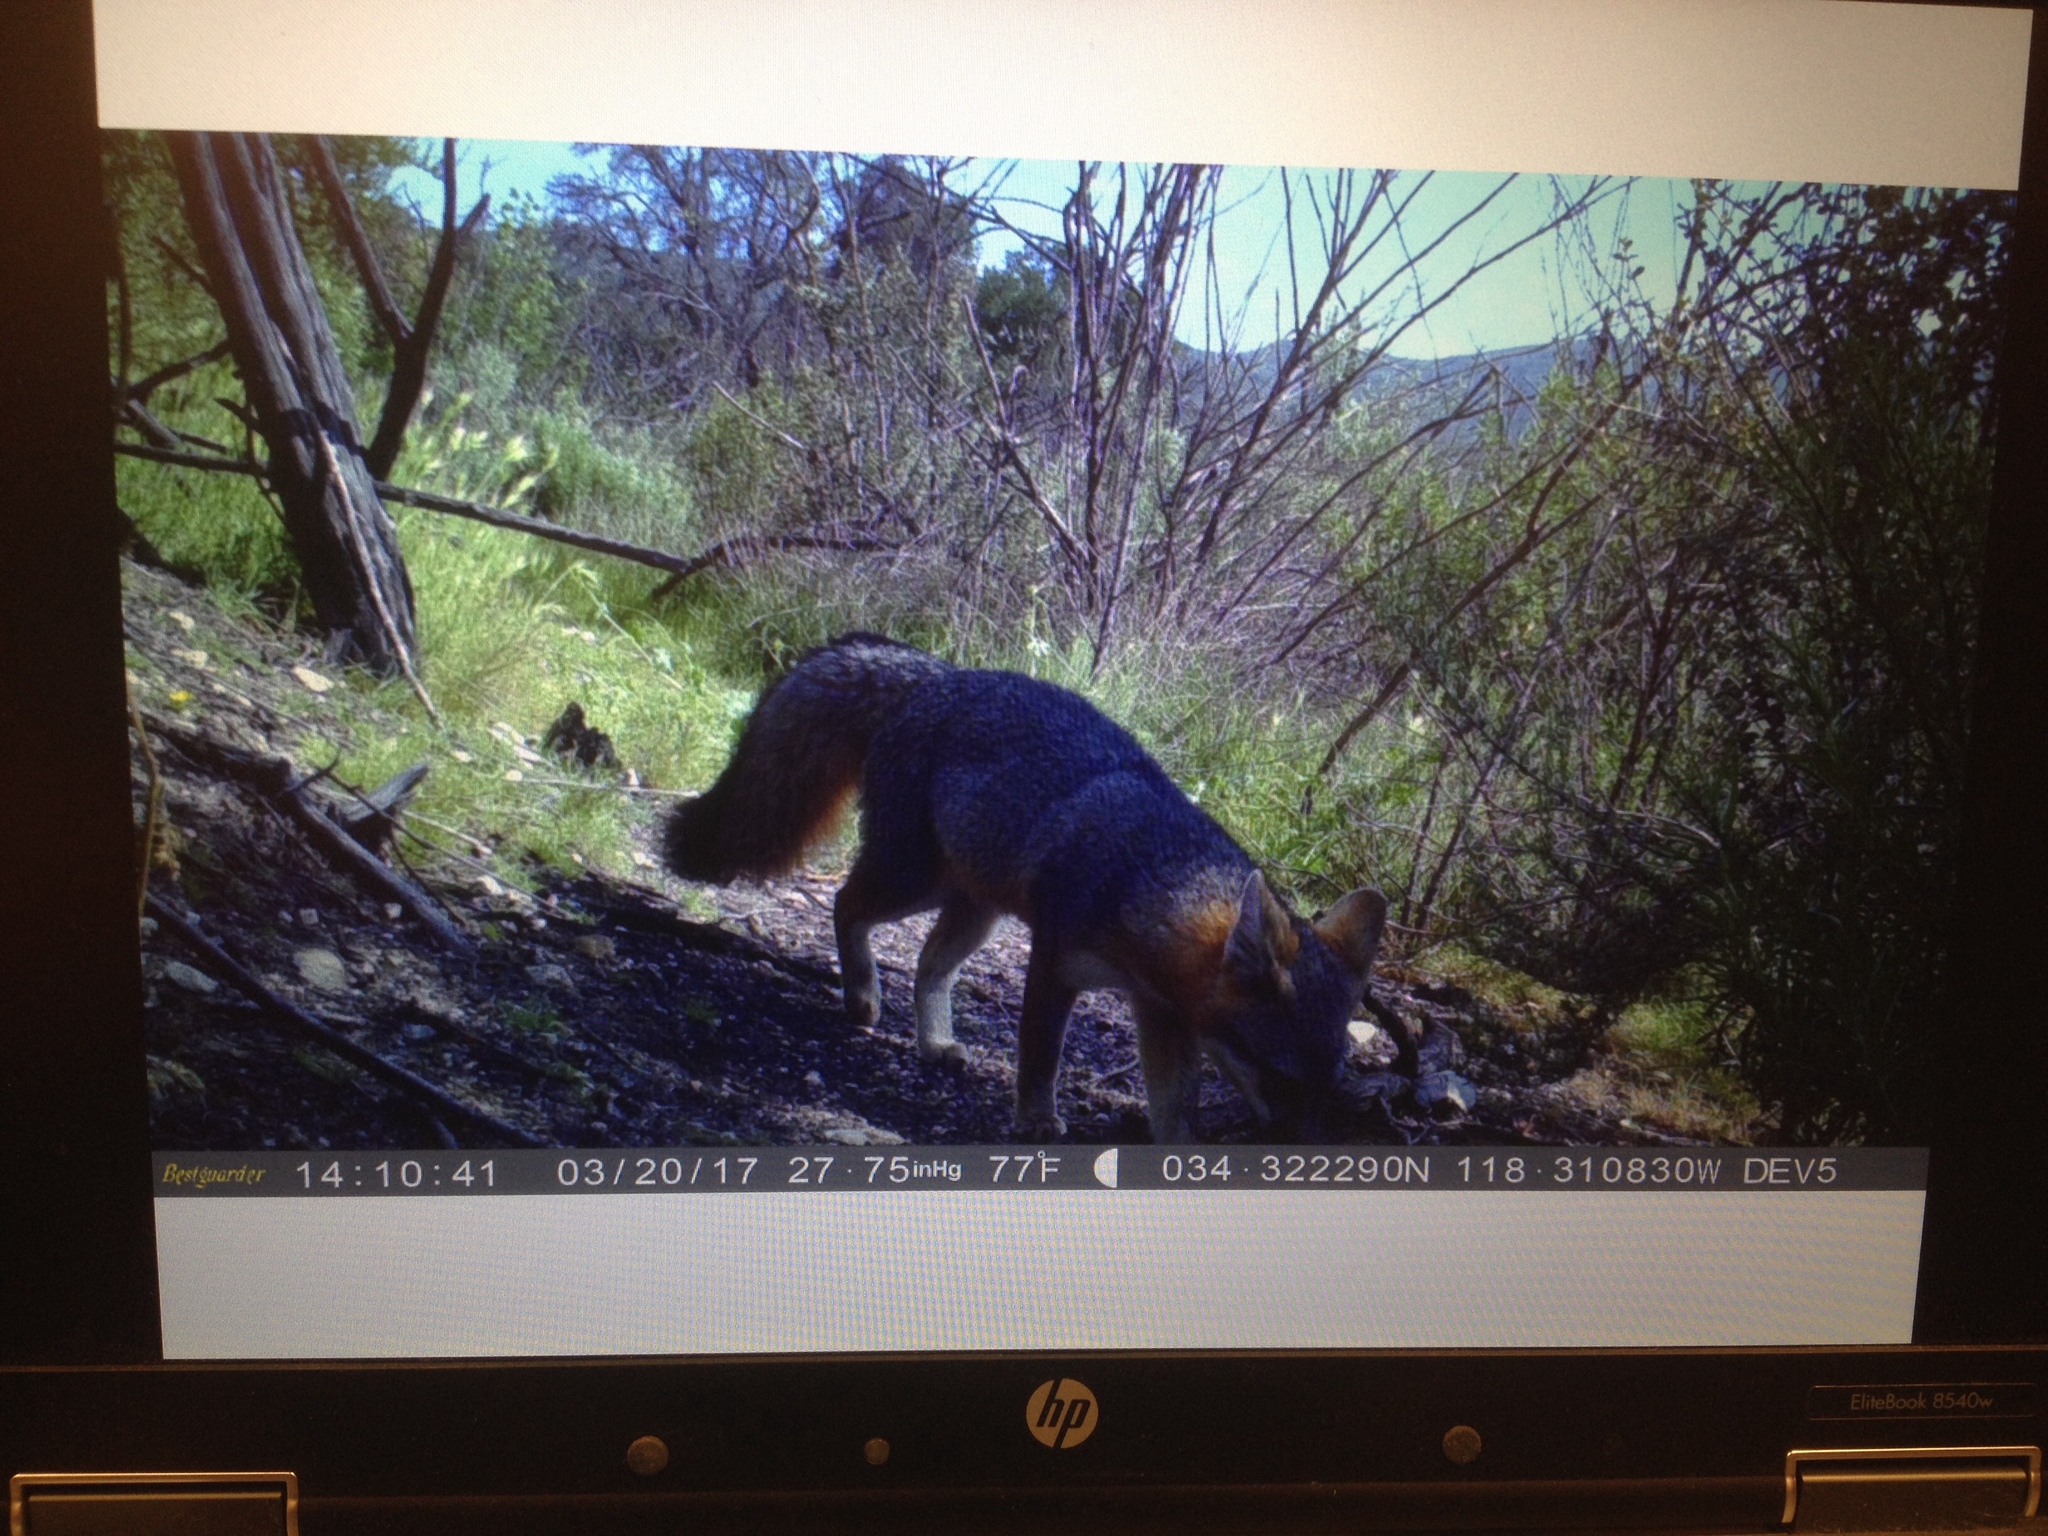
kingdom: Animalia
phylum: Chordata
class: Mammalia
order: Carnivora
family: Canidae
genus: Urocyon
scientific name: Urocyon cinereoargenteus
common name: Gray fox
